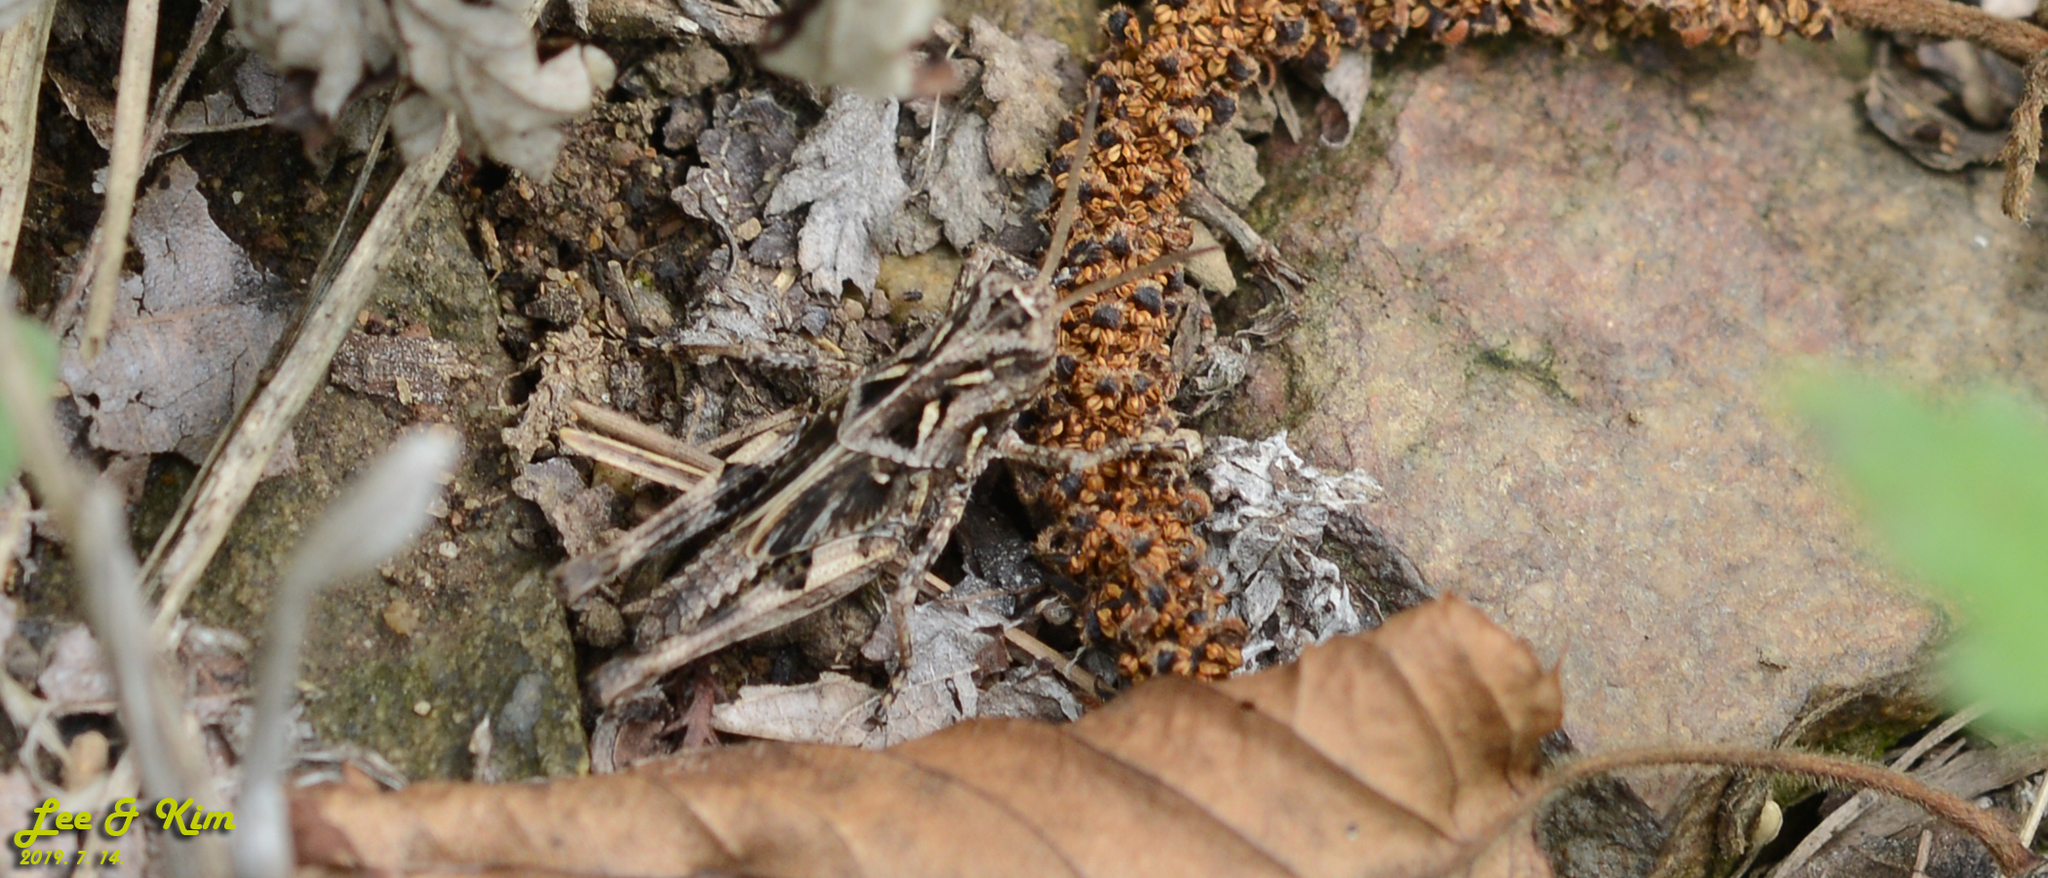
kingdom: Animalia
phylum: Arthropoda
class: Insecta
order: Orthoptera
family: Acrididae
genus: Oedaleus
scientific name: Oedaleus infernalis
